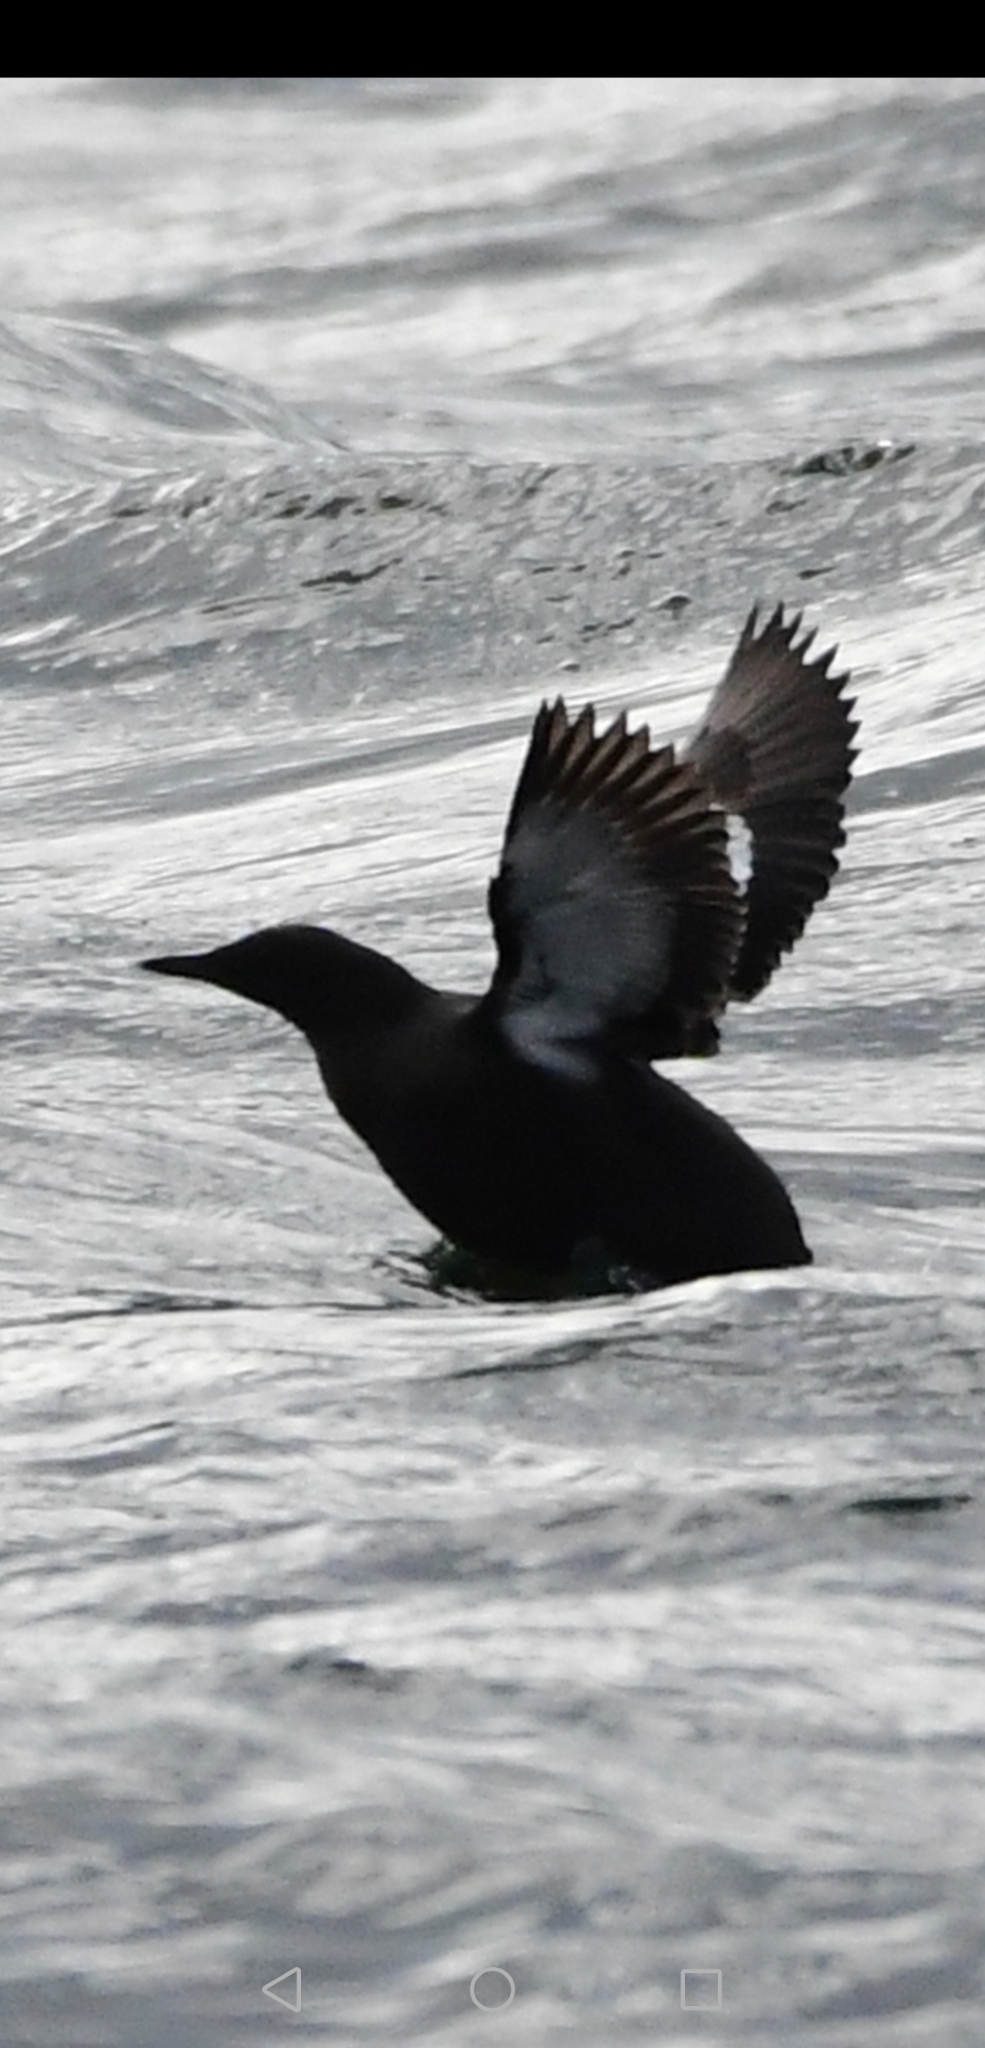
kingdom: Animalia
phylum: Chordata
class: Aves
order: Charadriiformes
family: Alcidae
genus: Cepphus
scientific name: Cepphus grylle
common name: Black guillemot
